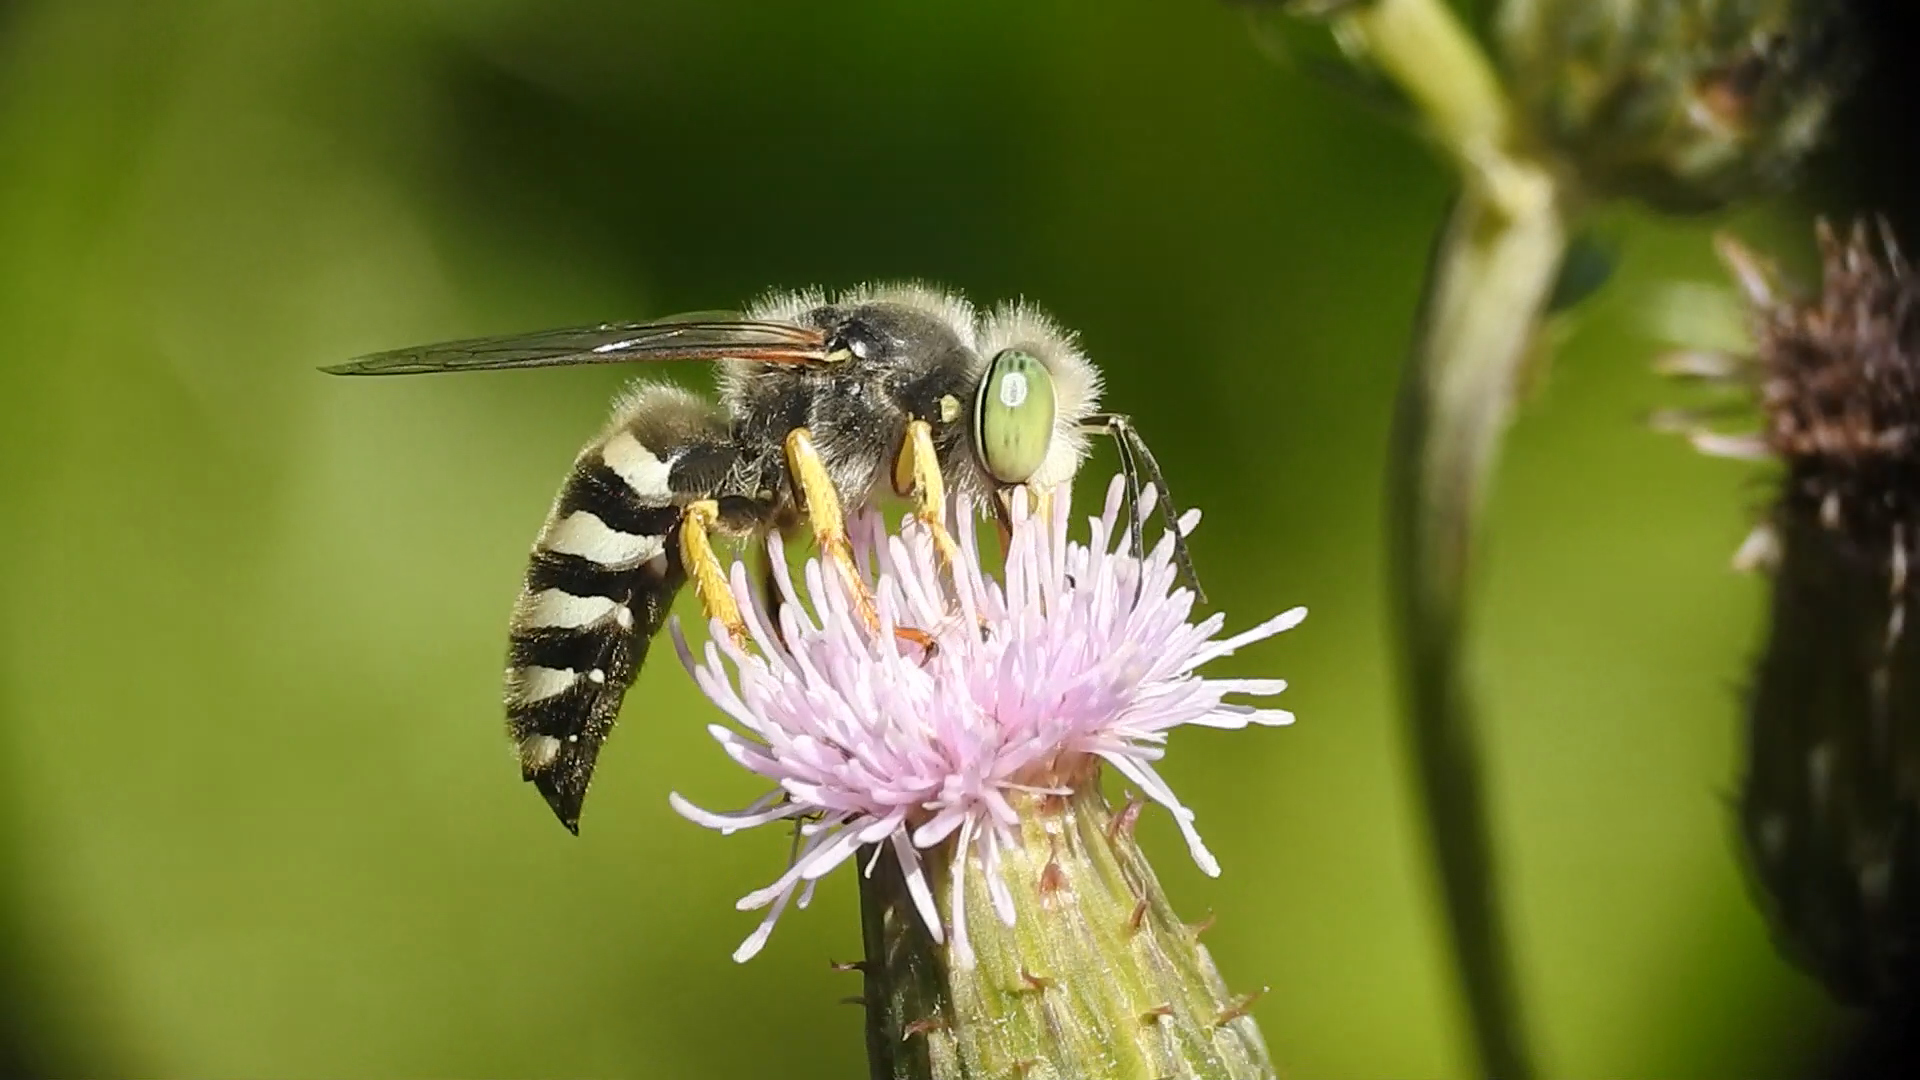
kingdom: Animalia
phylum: Arthropoda
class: Insecta
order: Hymenoptera
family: Crabronidae
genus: Bembix
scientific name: Bembix americana
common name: American sand wasp
